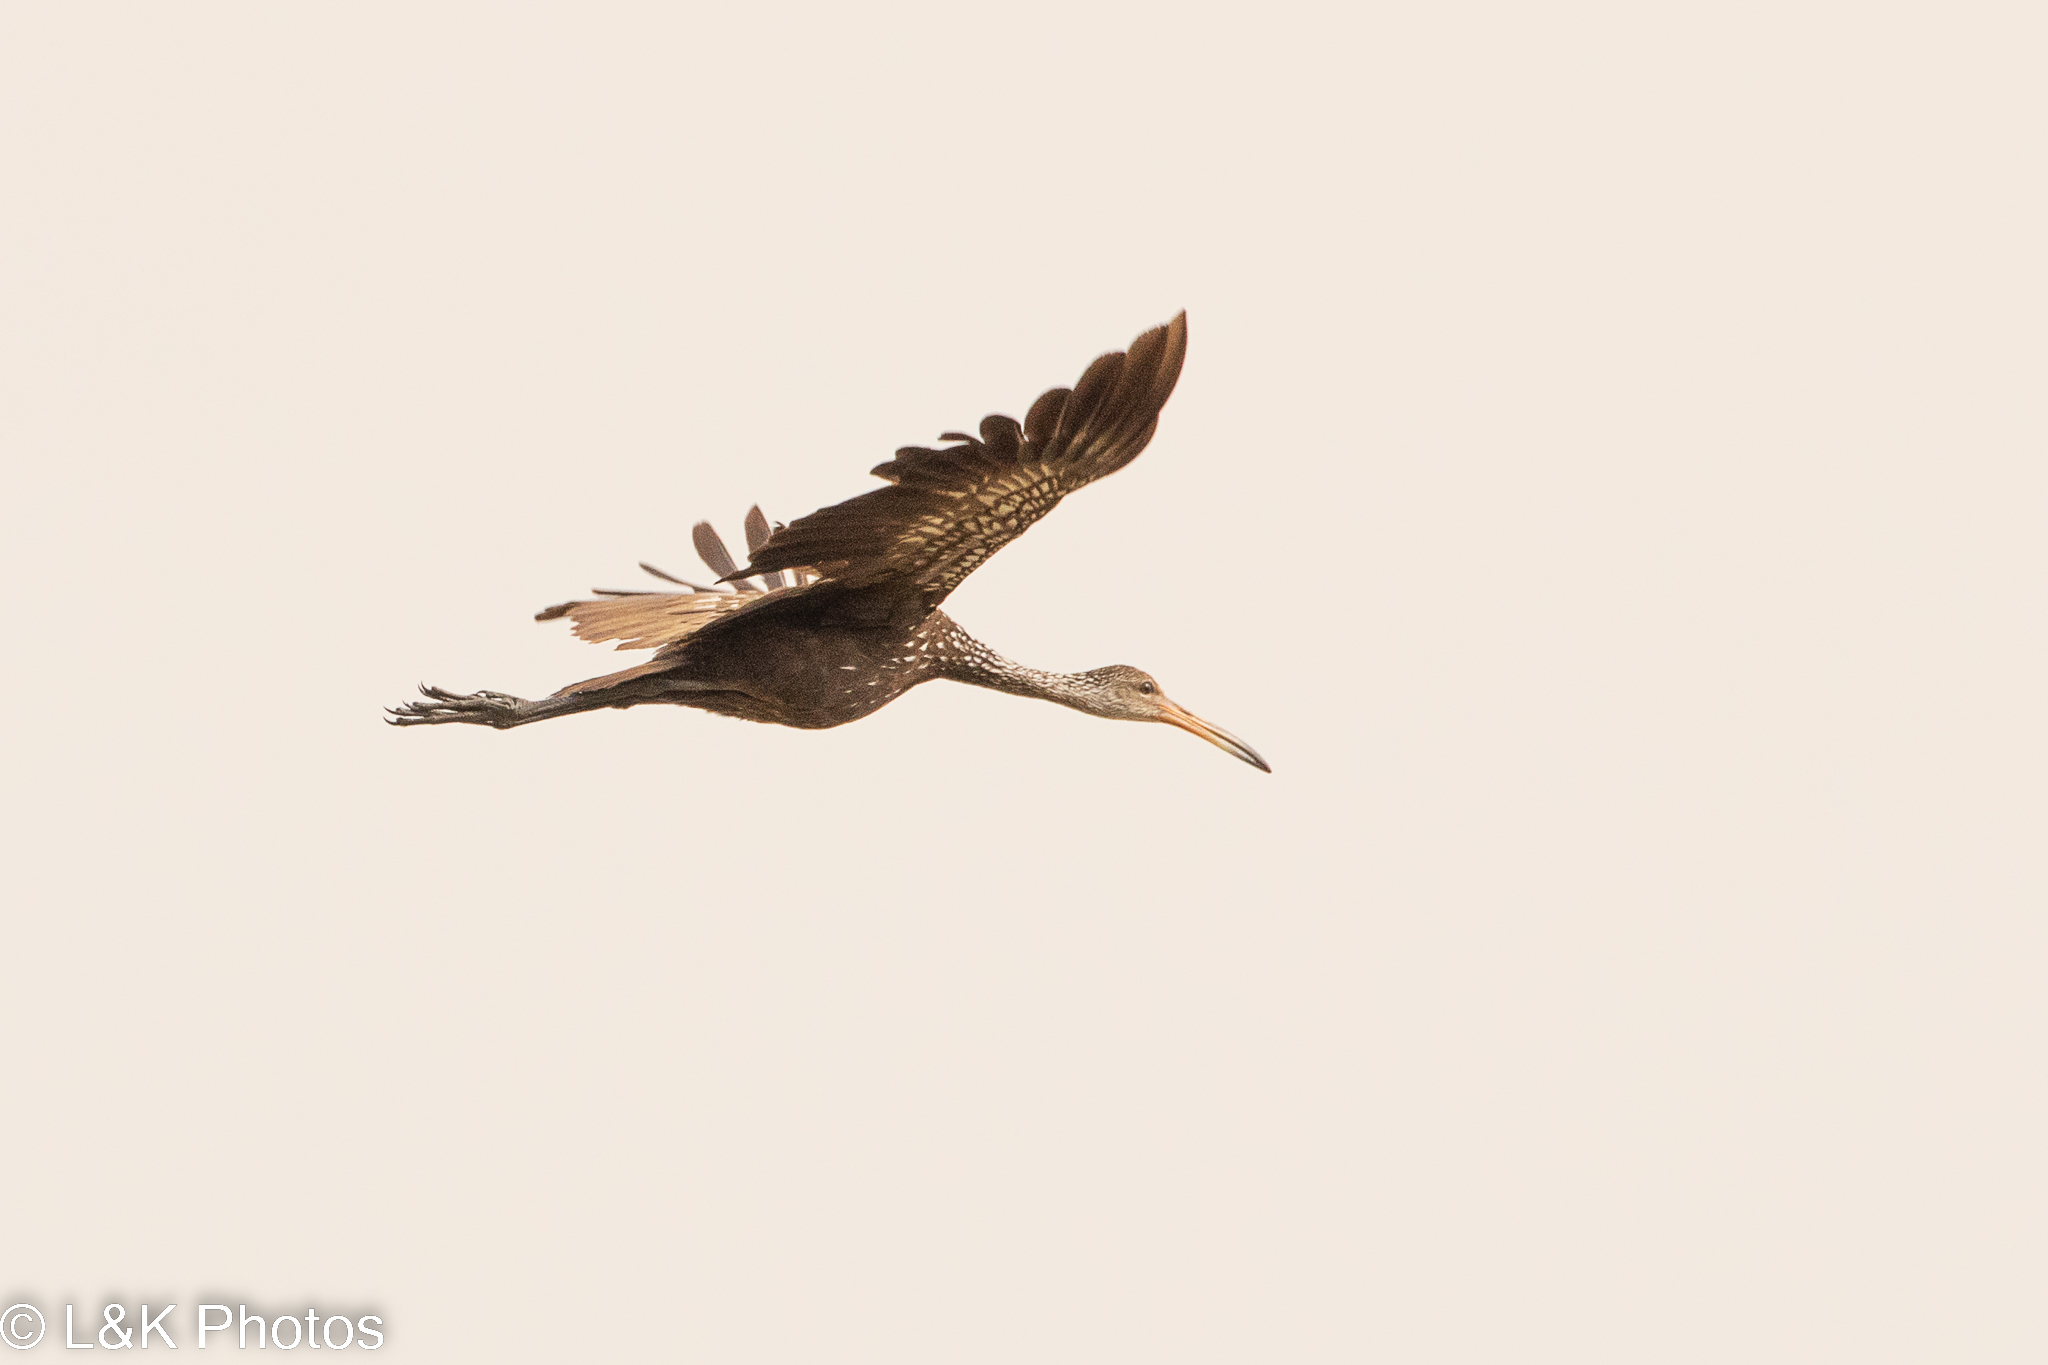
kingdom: Animalia
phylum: Chordata
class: Aves
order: Gruiformes
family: Aramidae
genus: Aramus
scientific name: Aramus guarauna
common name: Limpkin
